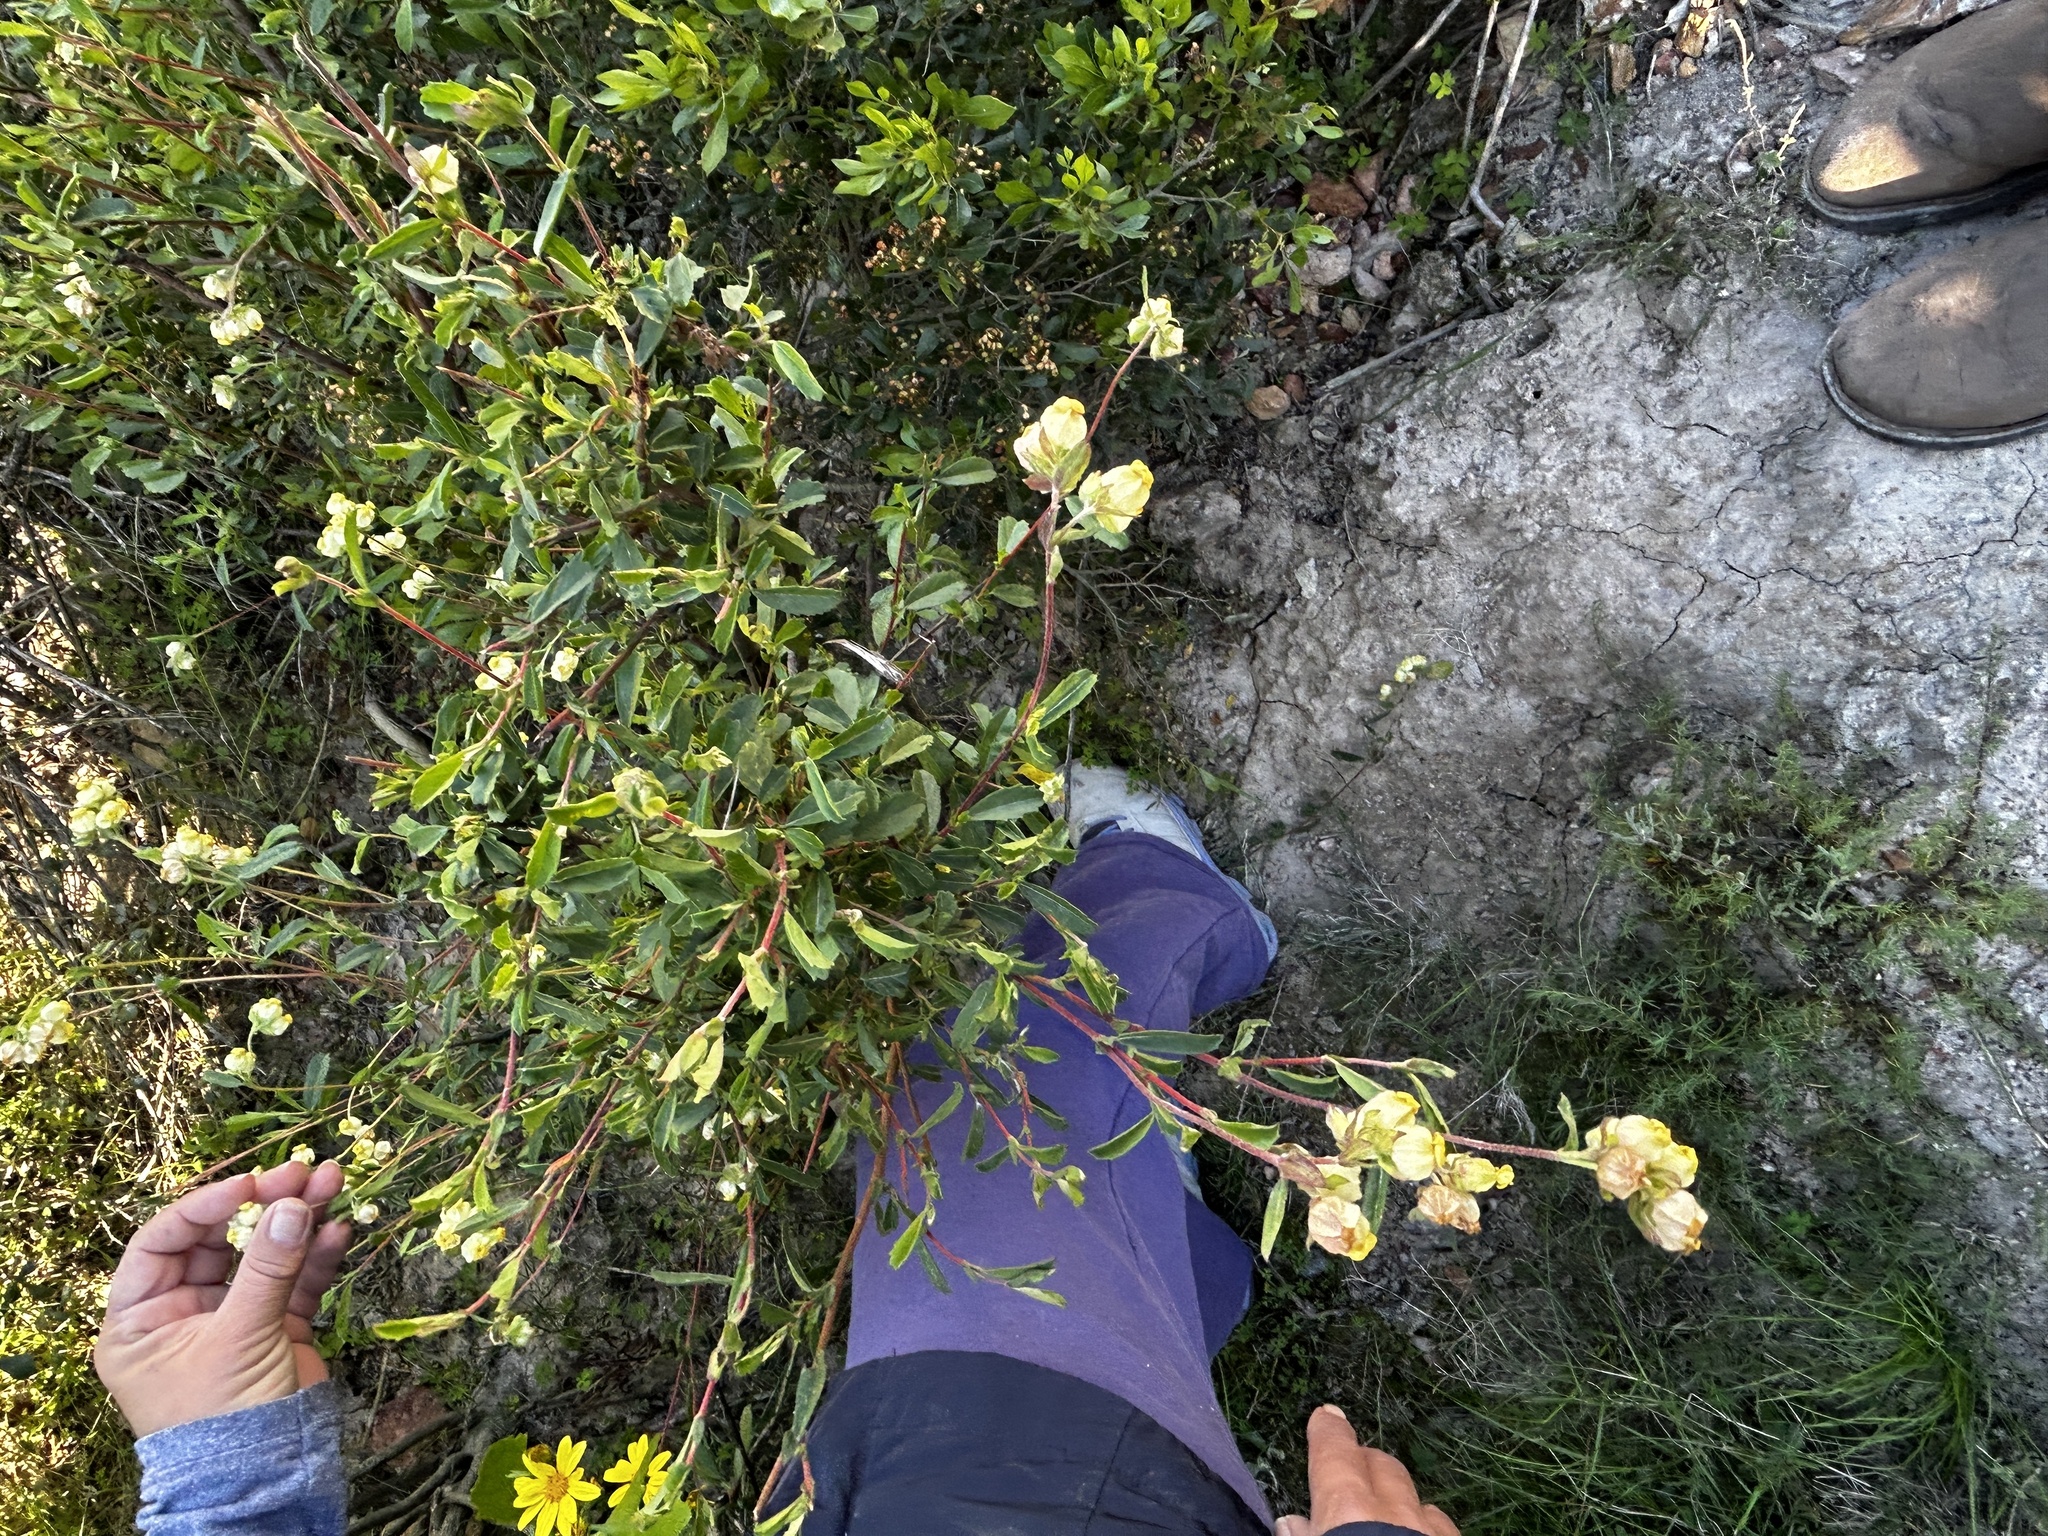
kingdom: Plantae
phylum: Tracheophyta
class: Magnoliopsida
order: Malvales
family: Malvaceae
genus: Hermannia
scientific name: Hermannia hyssopifolia
